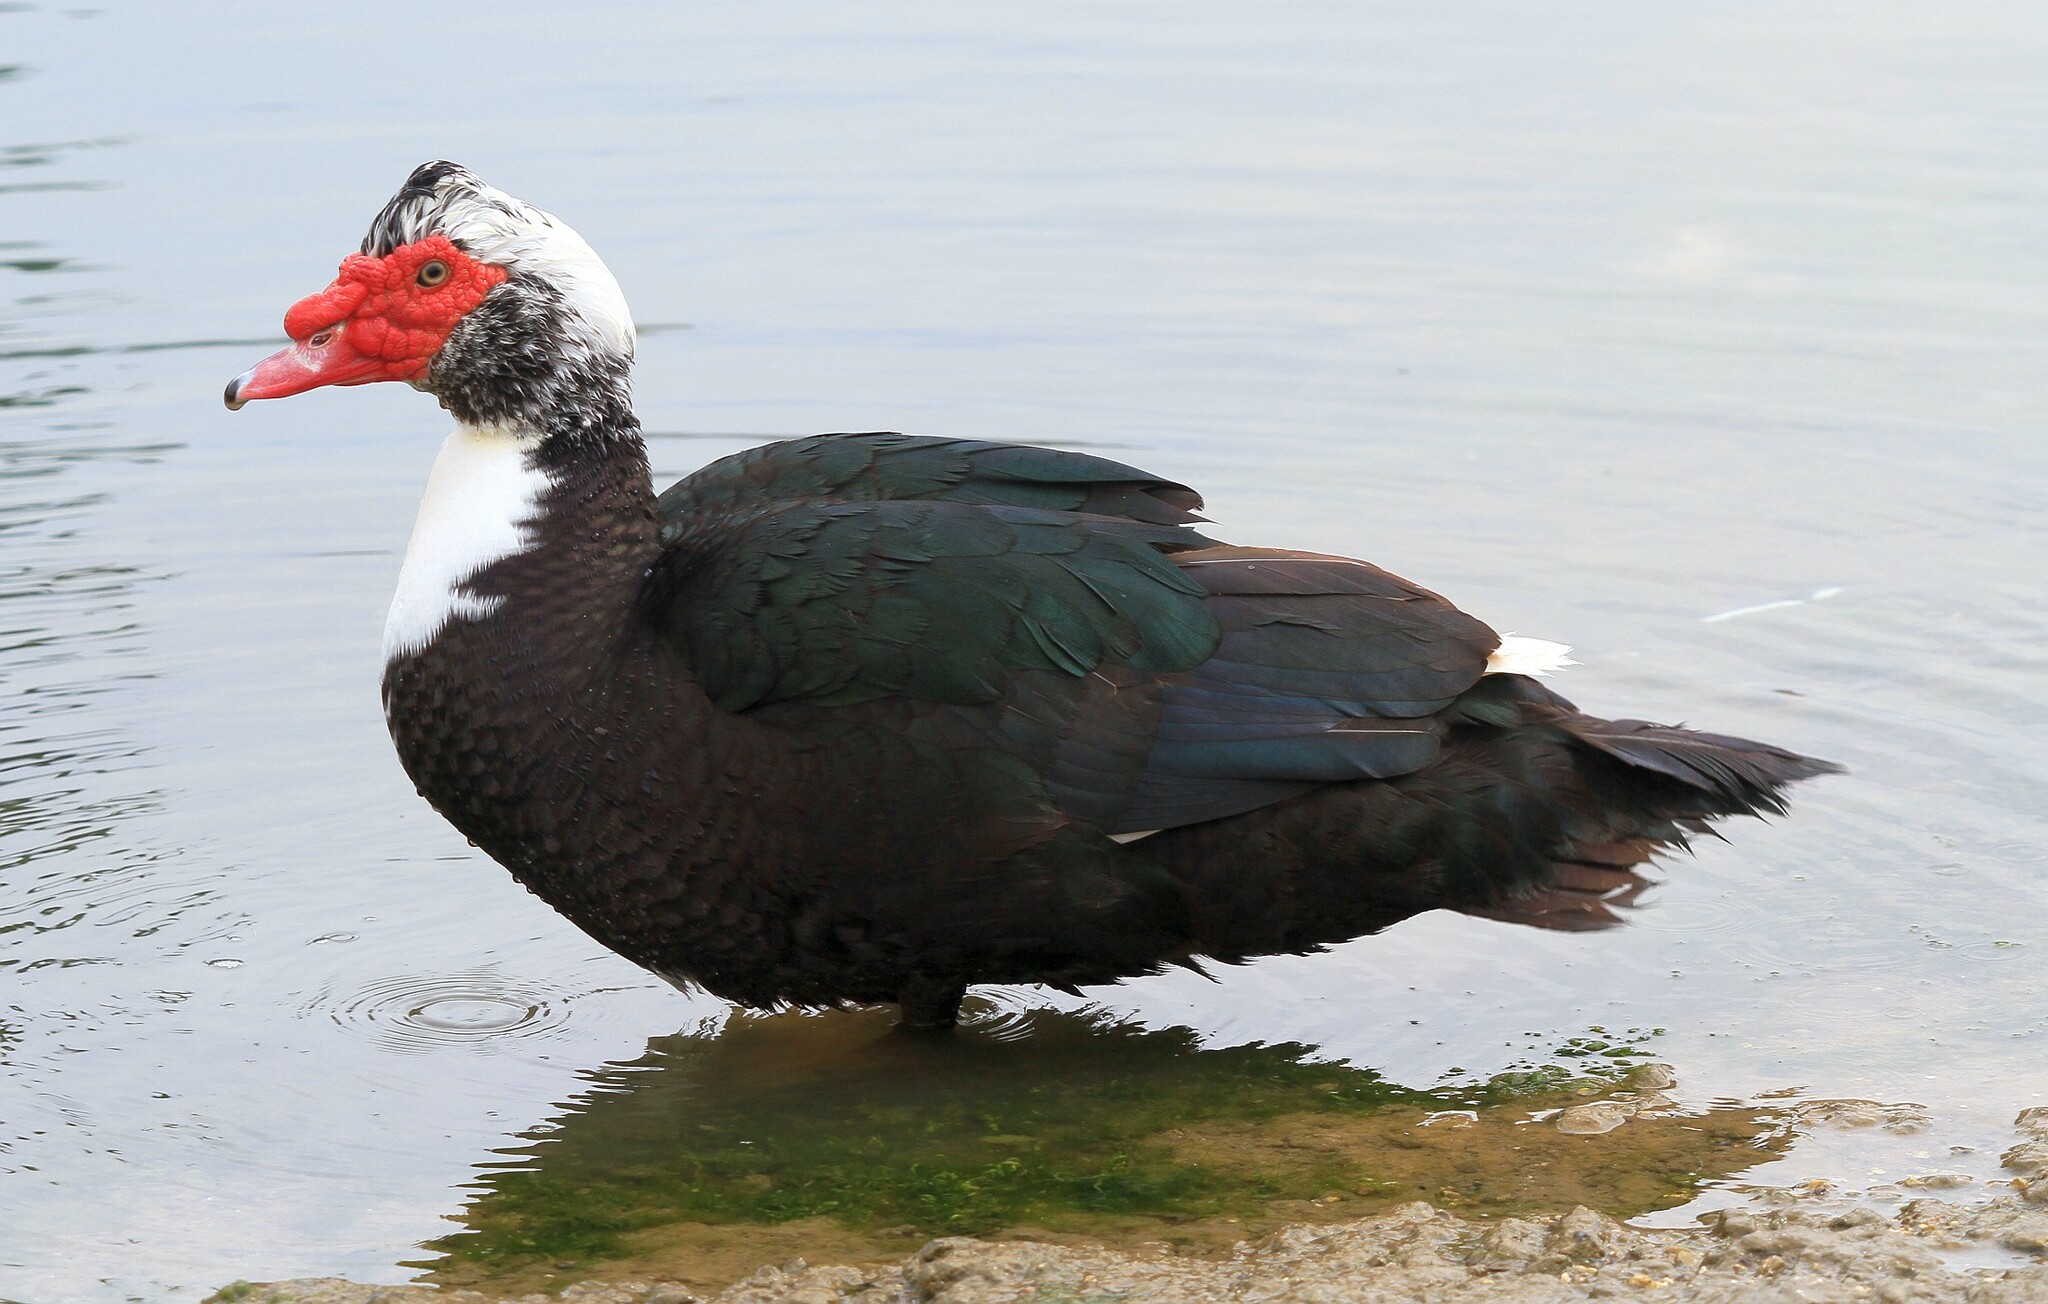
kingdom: Animalia
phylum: Chordata
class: Aves
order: Anseriformes
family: Anatidae
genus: Cairina
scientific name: Cairina moschata
